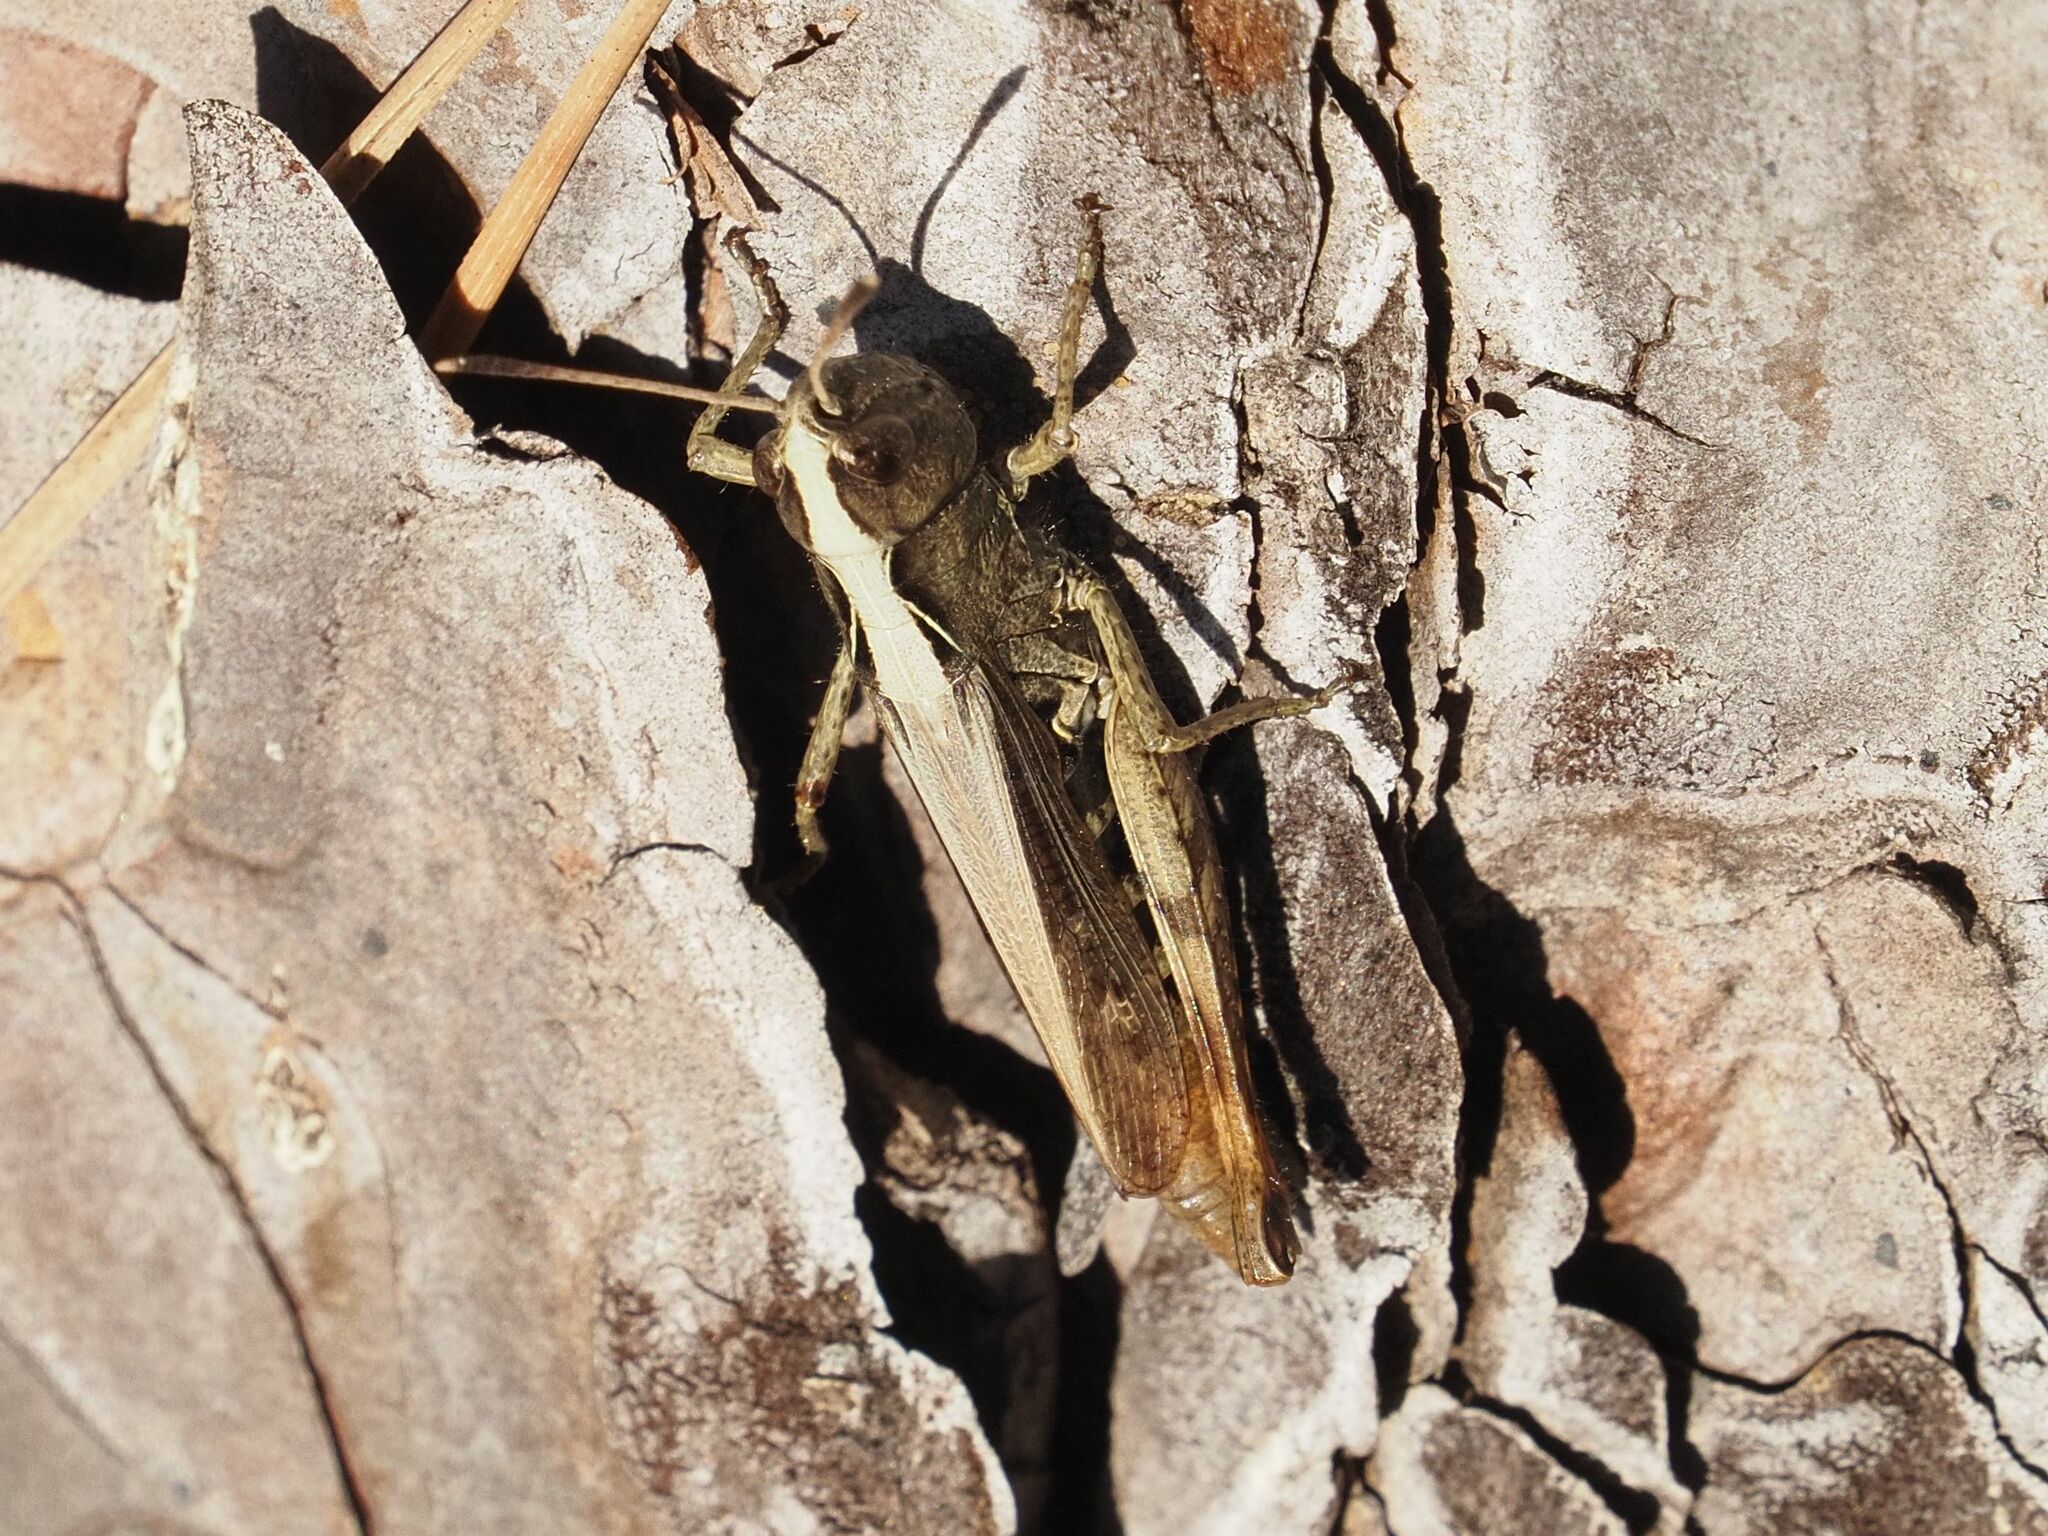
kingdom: Animalia
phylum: Arthropoda
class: Insecta
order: Orthoptera
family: Acrididae
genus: Gomphocerippus
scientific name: Gomphocerippus rufus
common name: Rufous grasshopper
